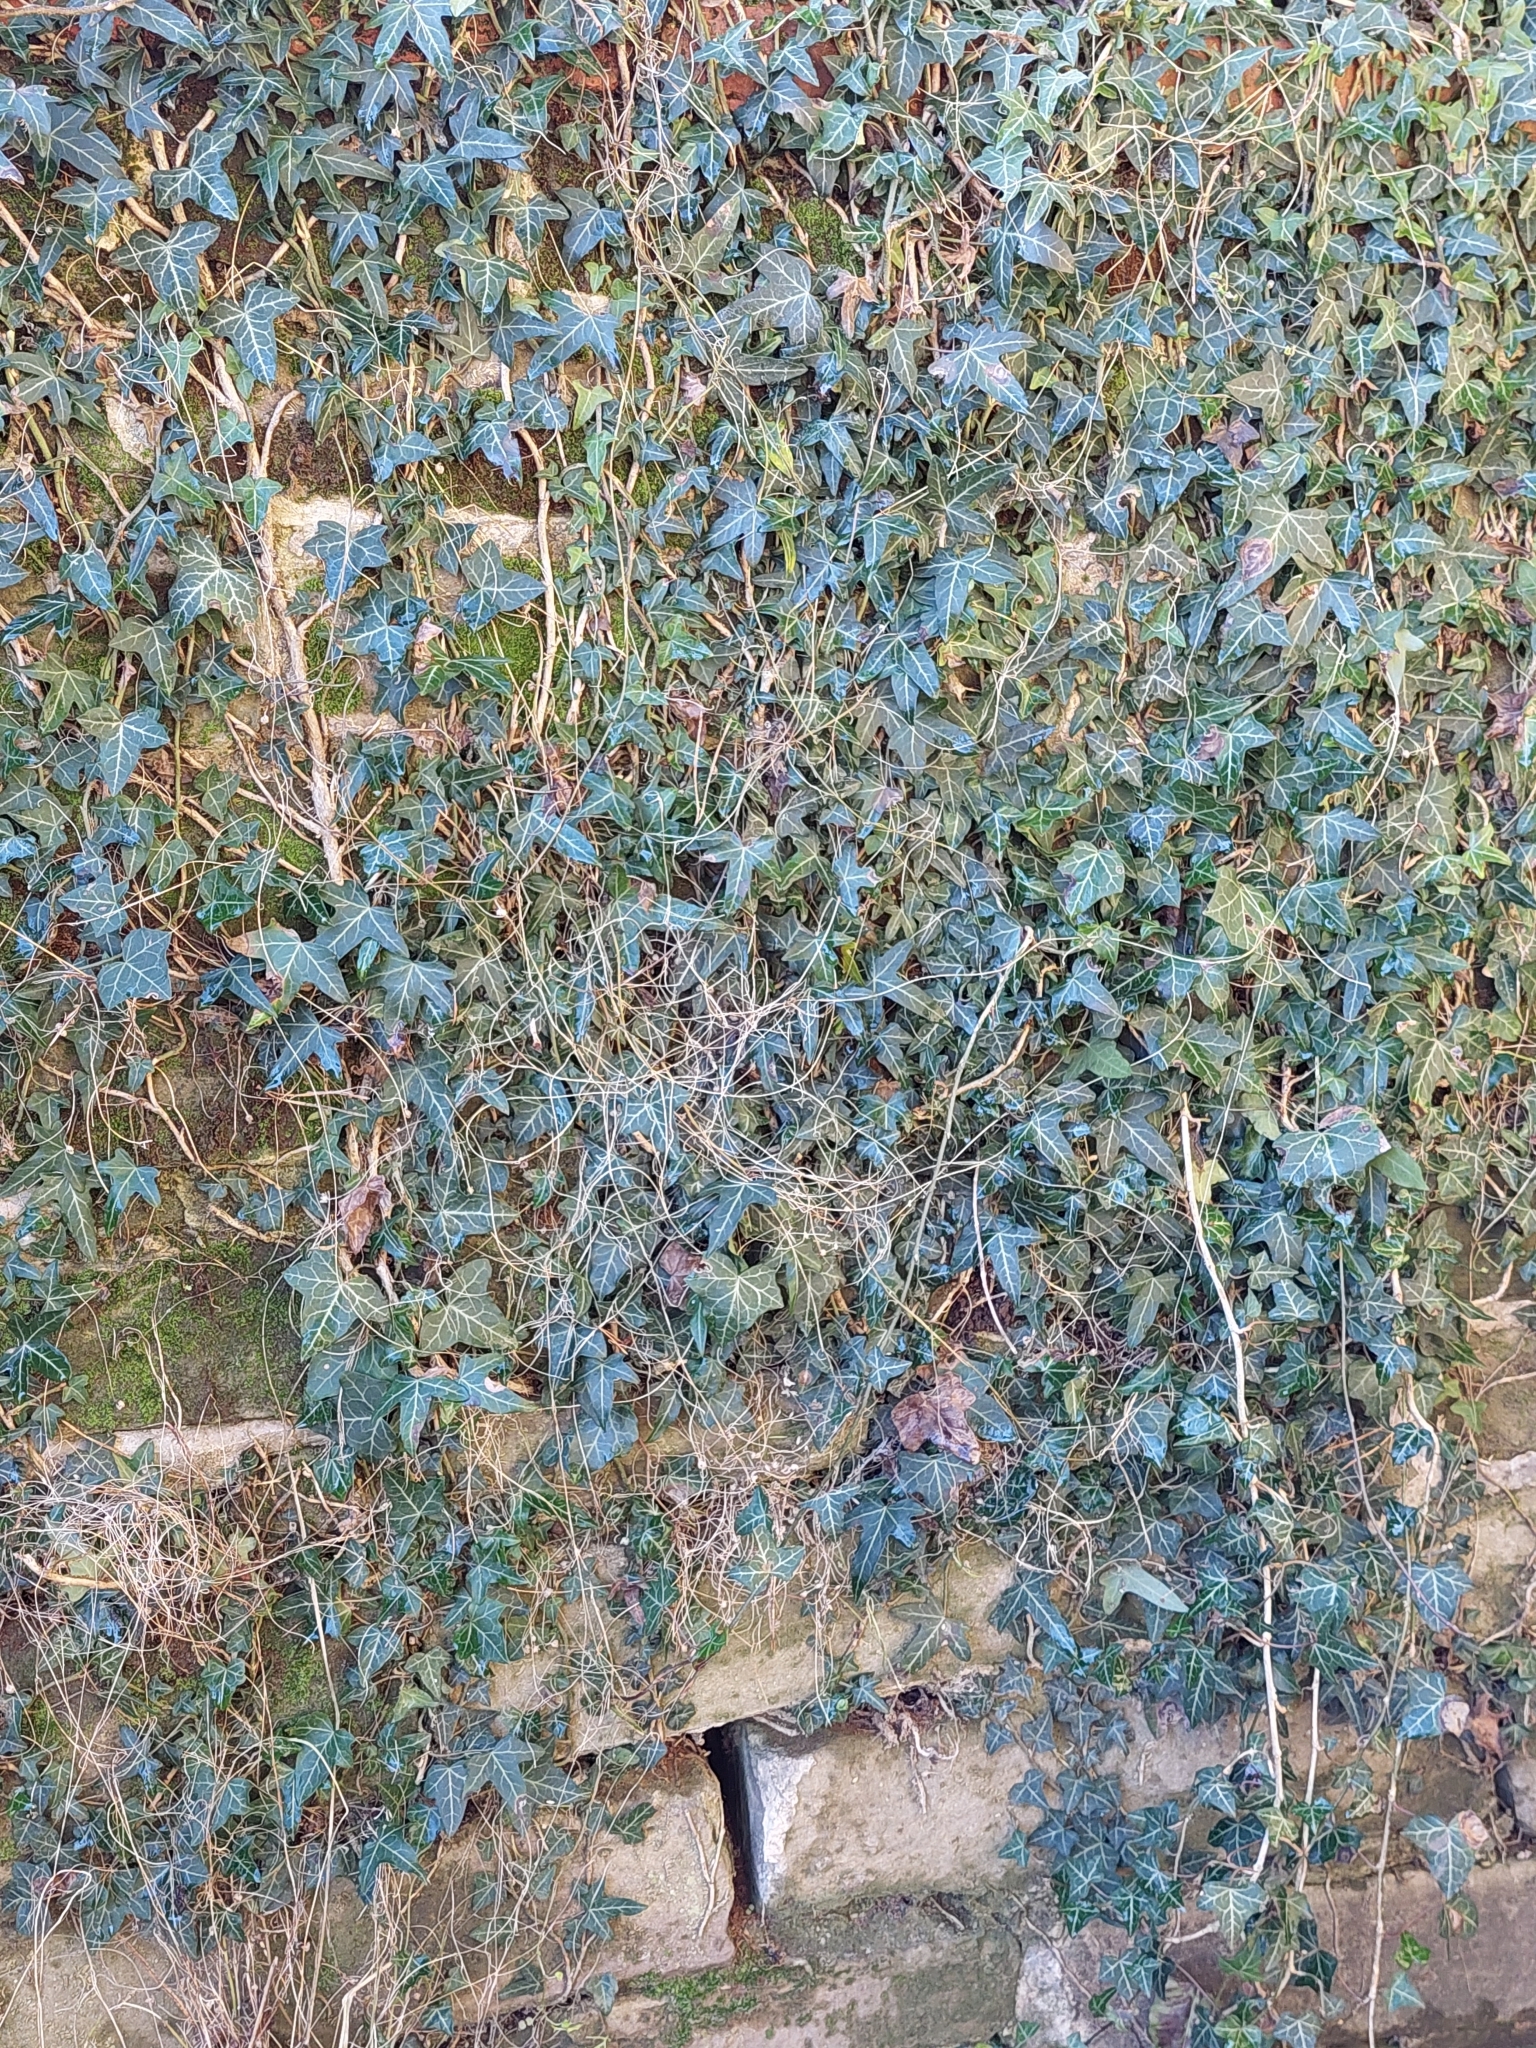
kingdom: Plantae
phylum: Tracheophyta
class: Magnoliopsida
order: Apiales
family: Araliaceae
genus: Hedera
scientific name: Hedera helix
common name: Ivy
